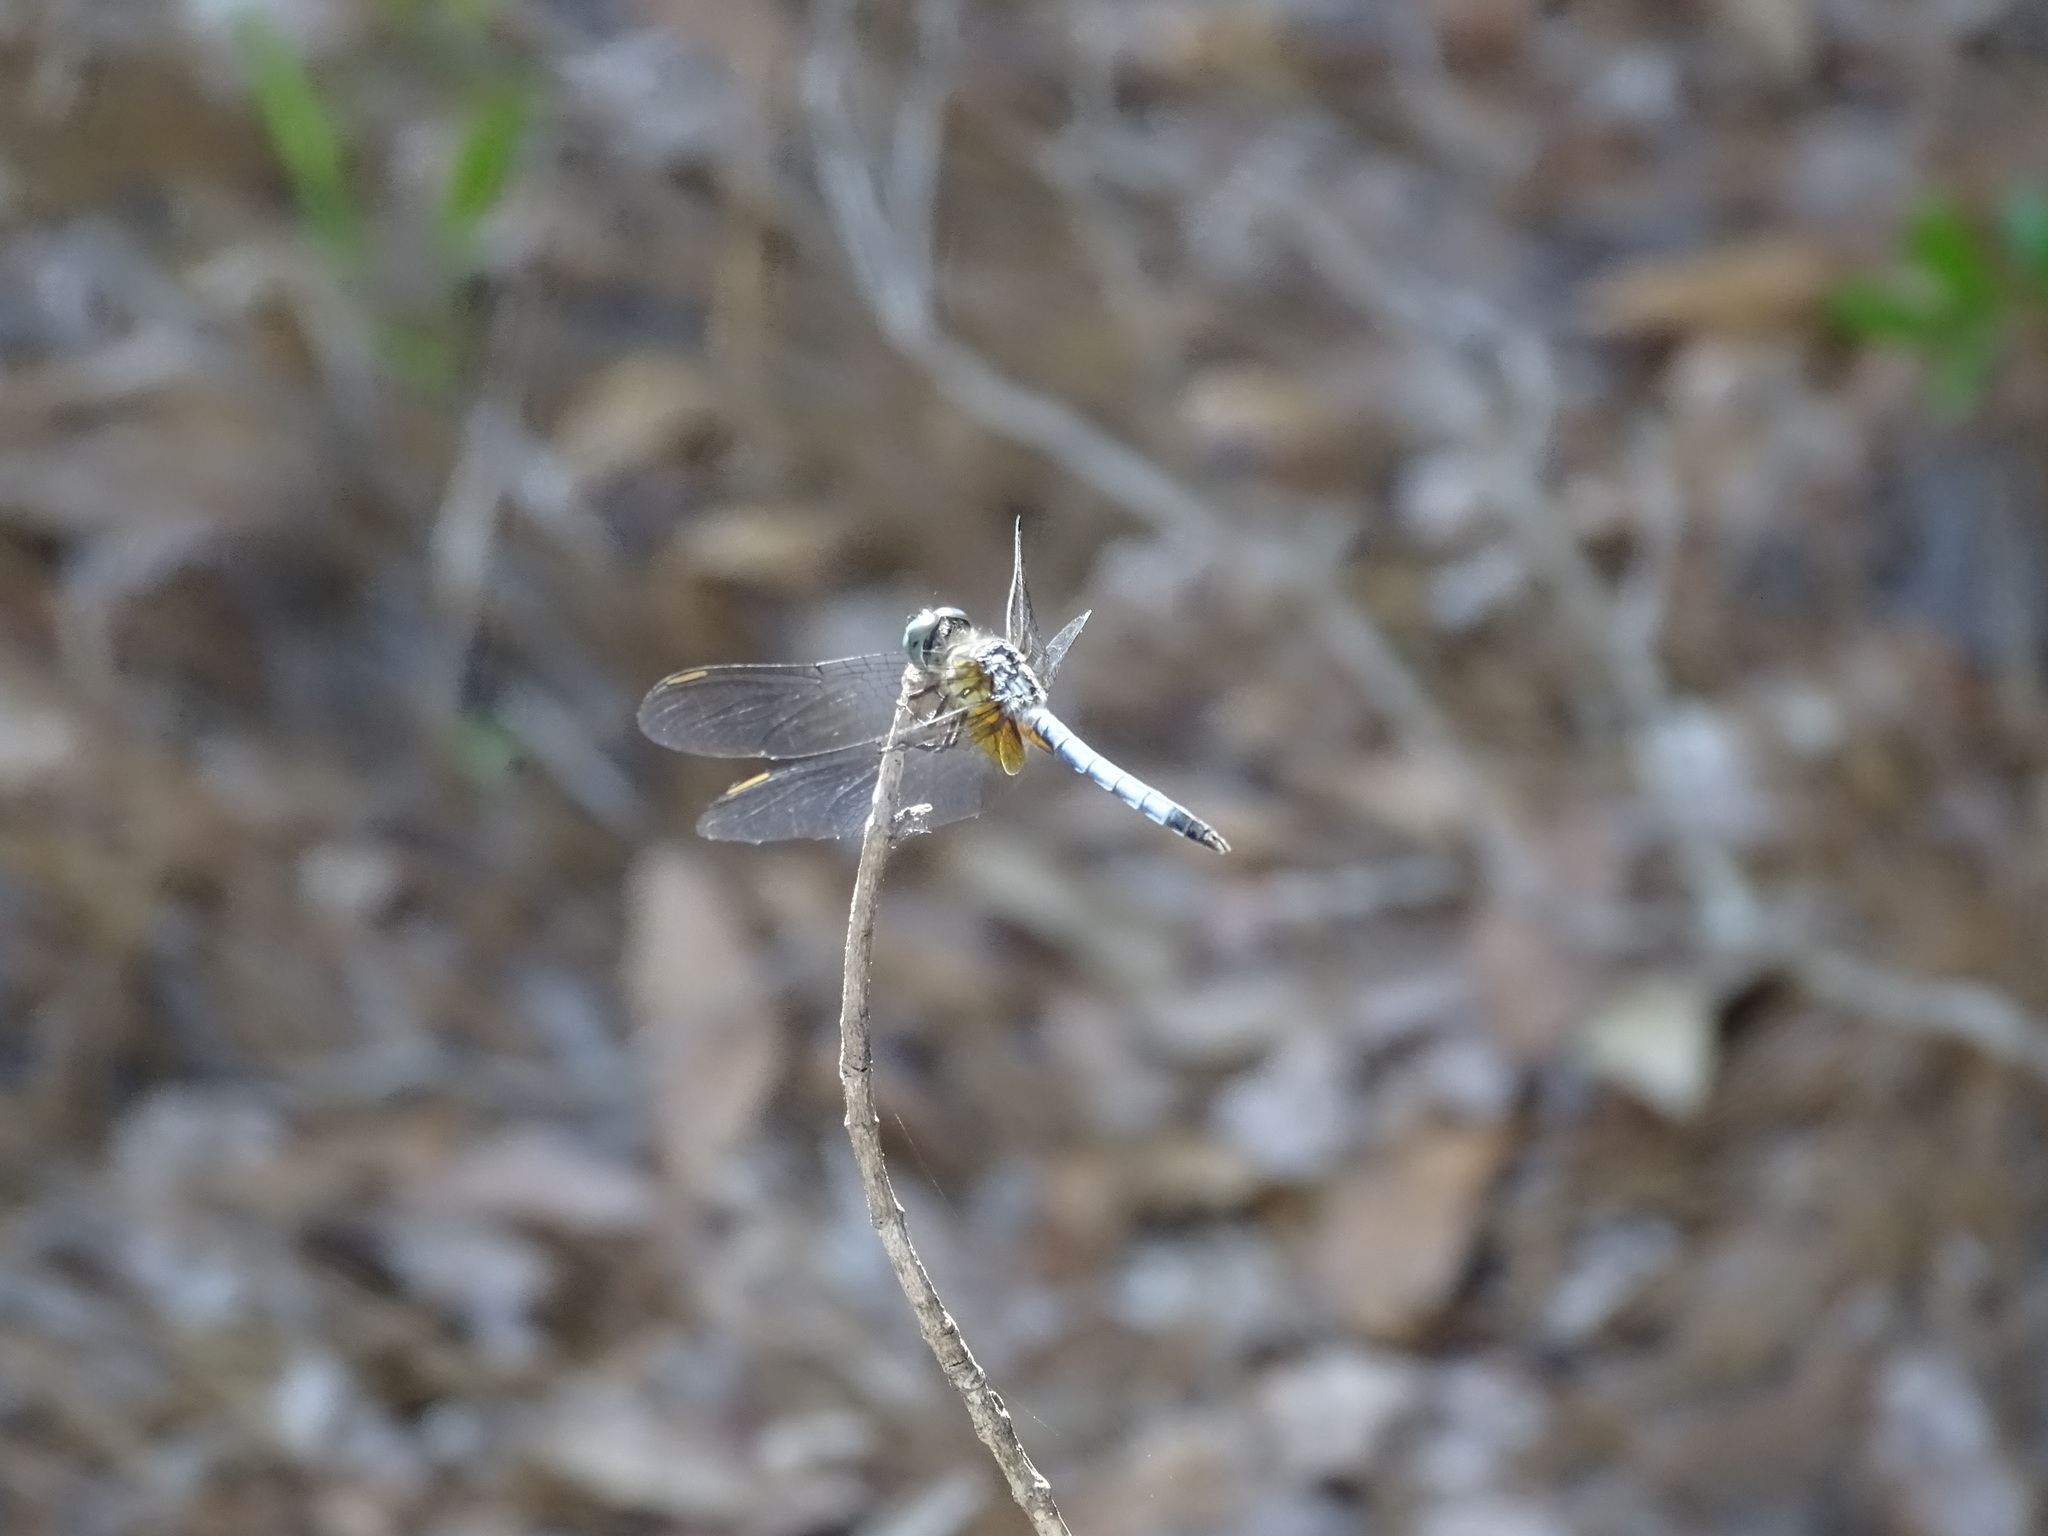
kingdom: Animalia
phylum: Arthropoda
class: Insecta
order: Odonata
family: Libellulidae
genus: Pachydiplax
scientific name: Pachydiplax longipennis
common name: Blue dasher
